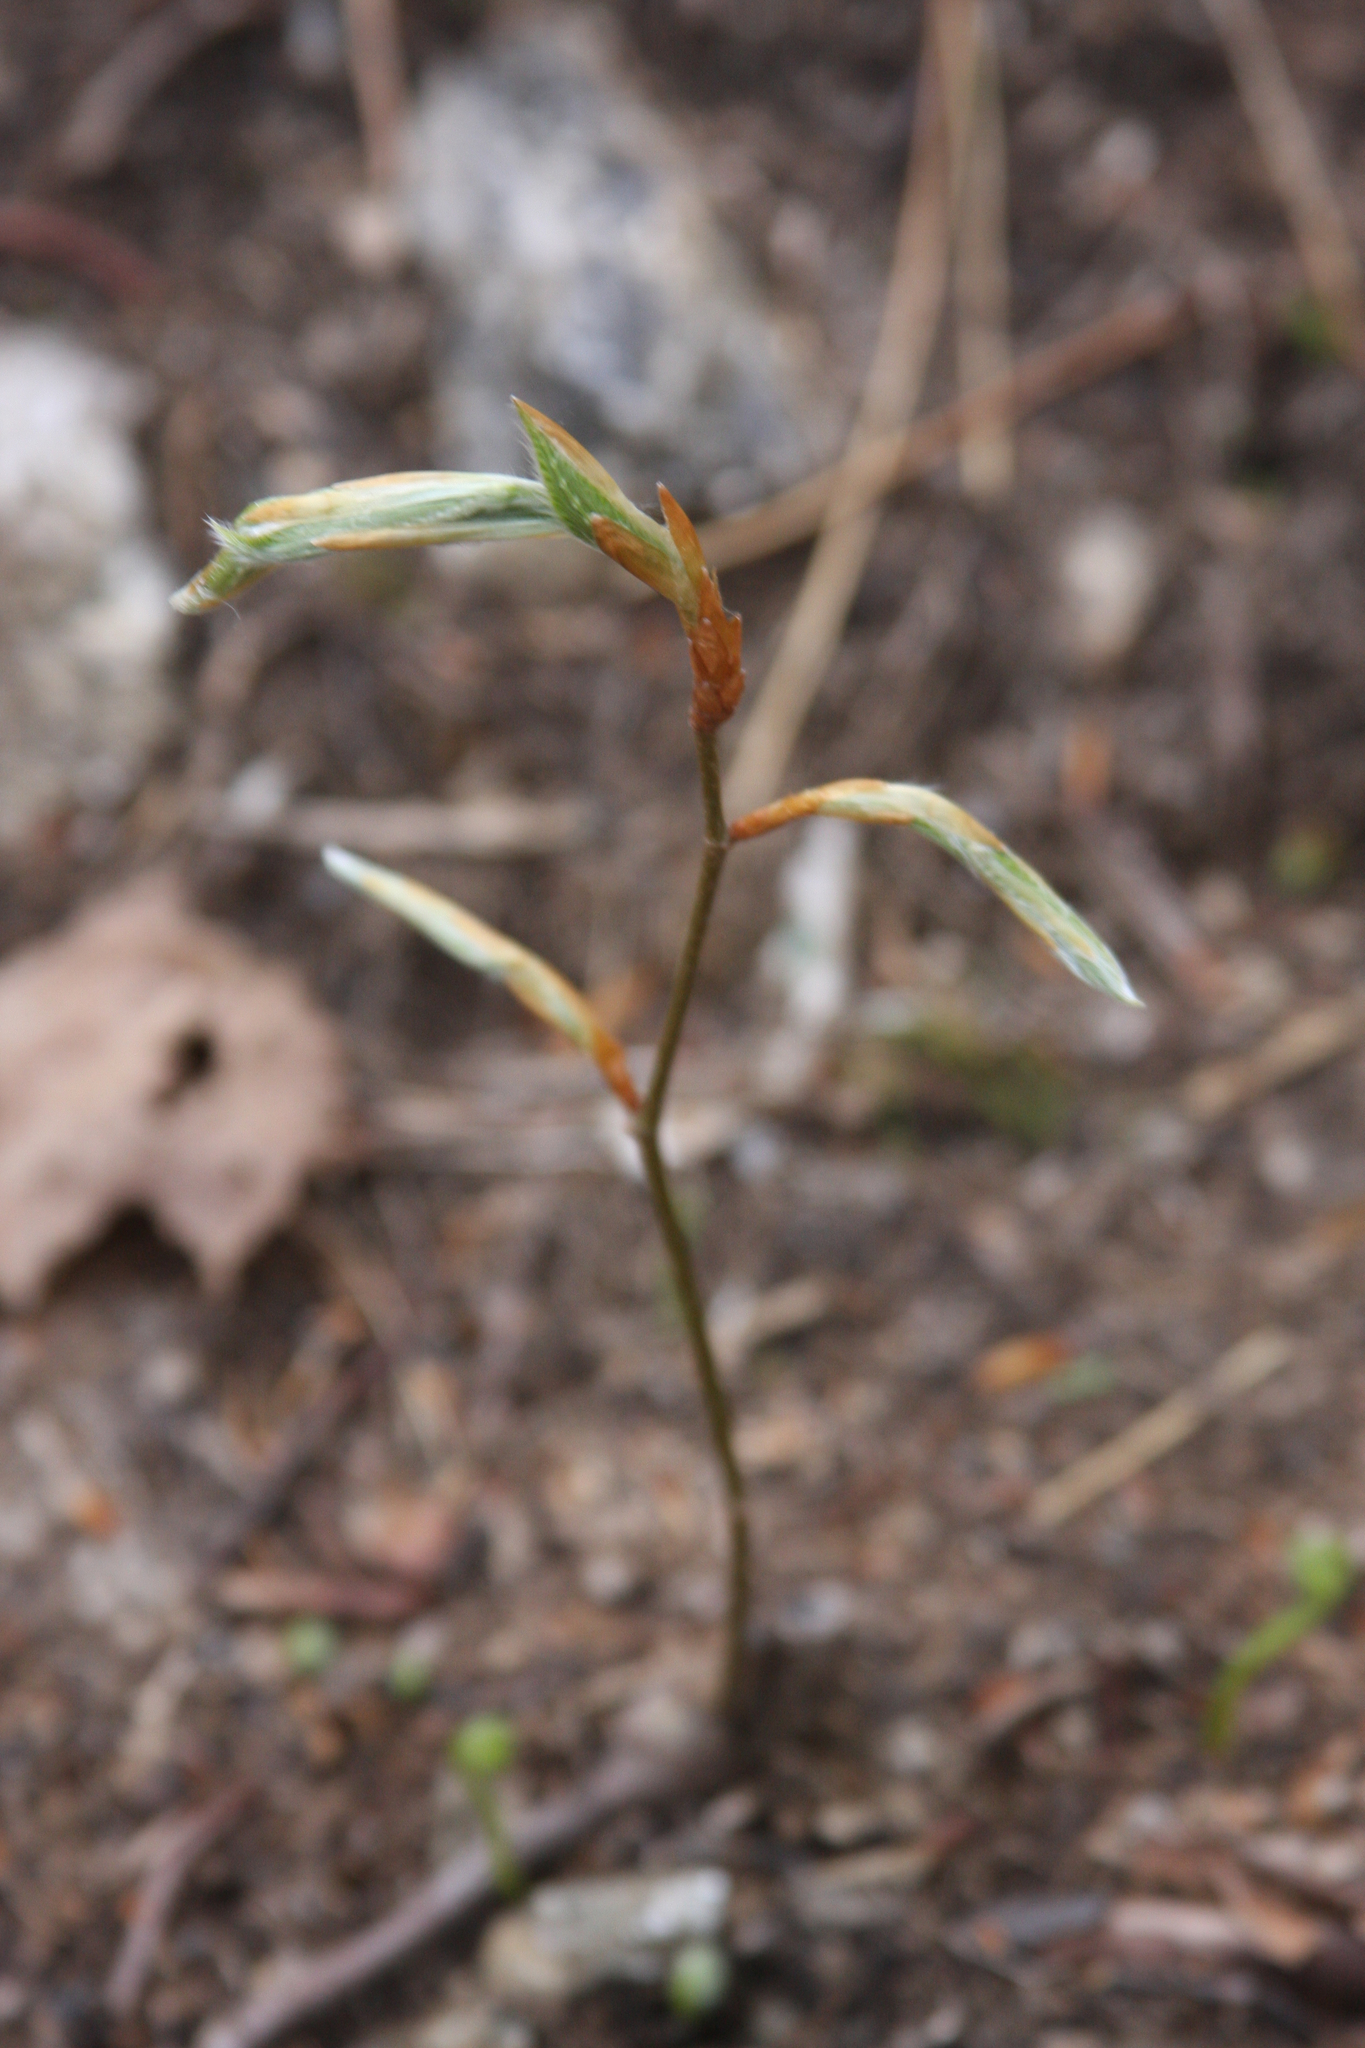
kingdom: Plantae
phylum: Tracheophyta
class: Magnoliopsida
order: Fagales
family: Fagaceae
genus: Fagus
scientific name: Fagus grandifolia
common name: American beech
